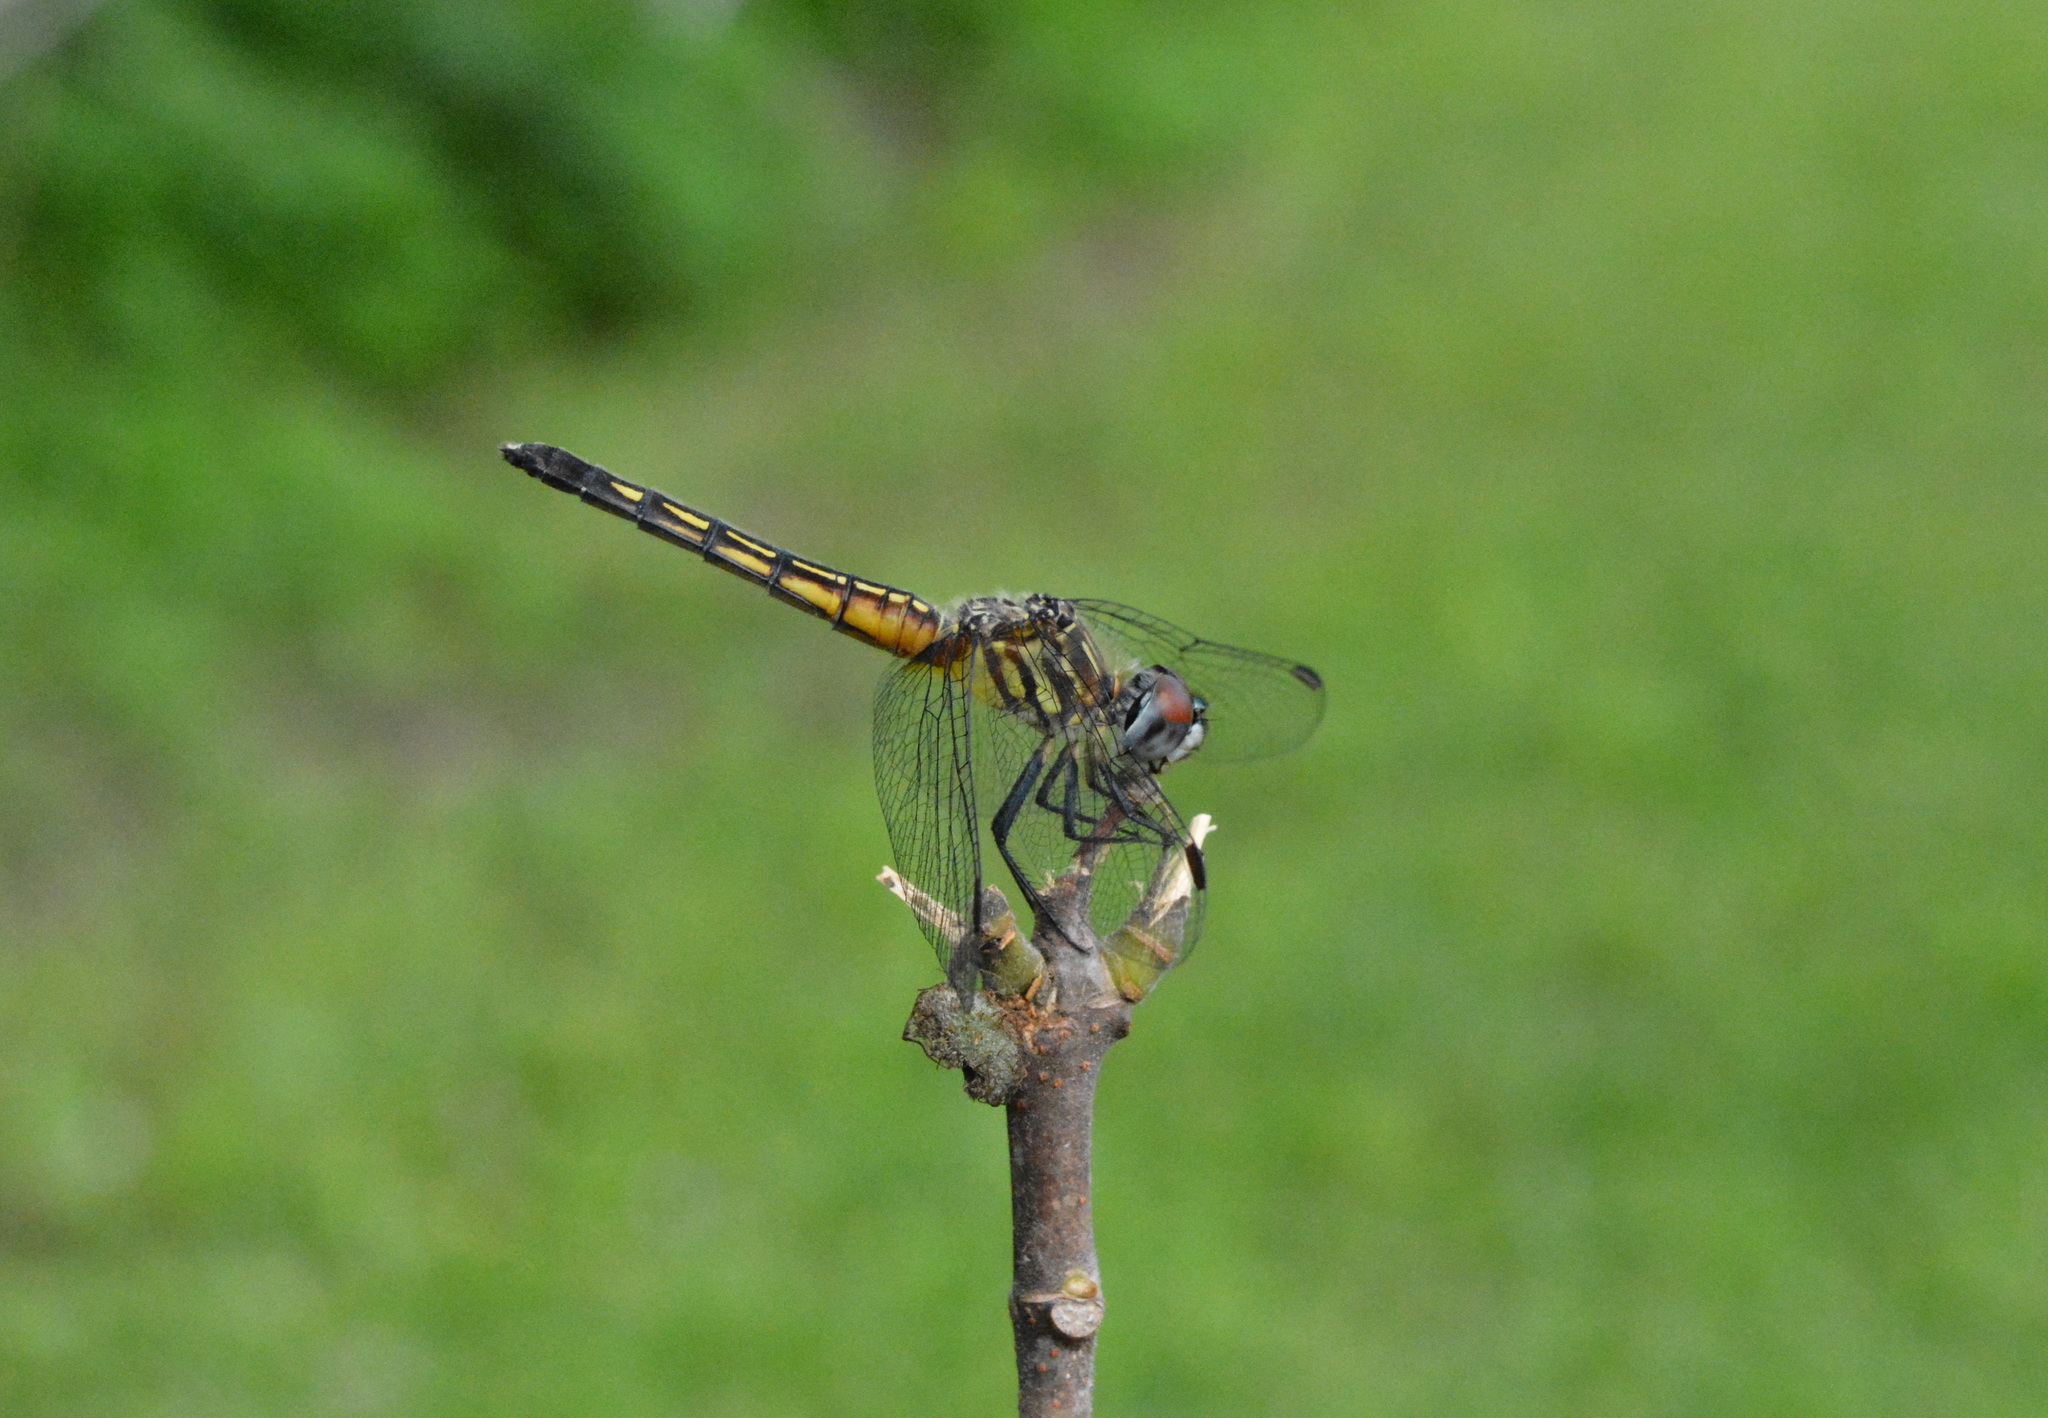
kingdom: Animalia
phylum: Arthropoda
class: Insecta
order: Odonata
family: Libellulidae
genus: Pachydiplax
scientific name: Pachydiplax longipennis
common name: Blue dasher
